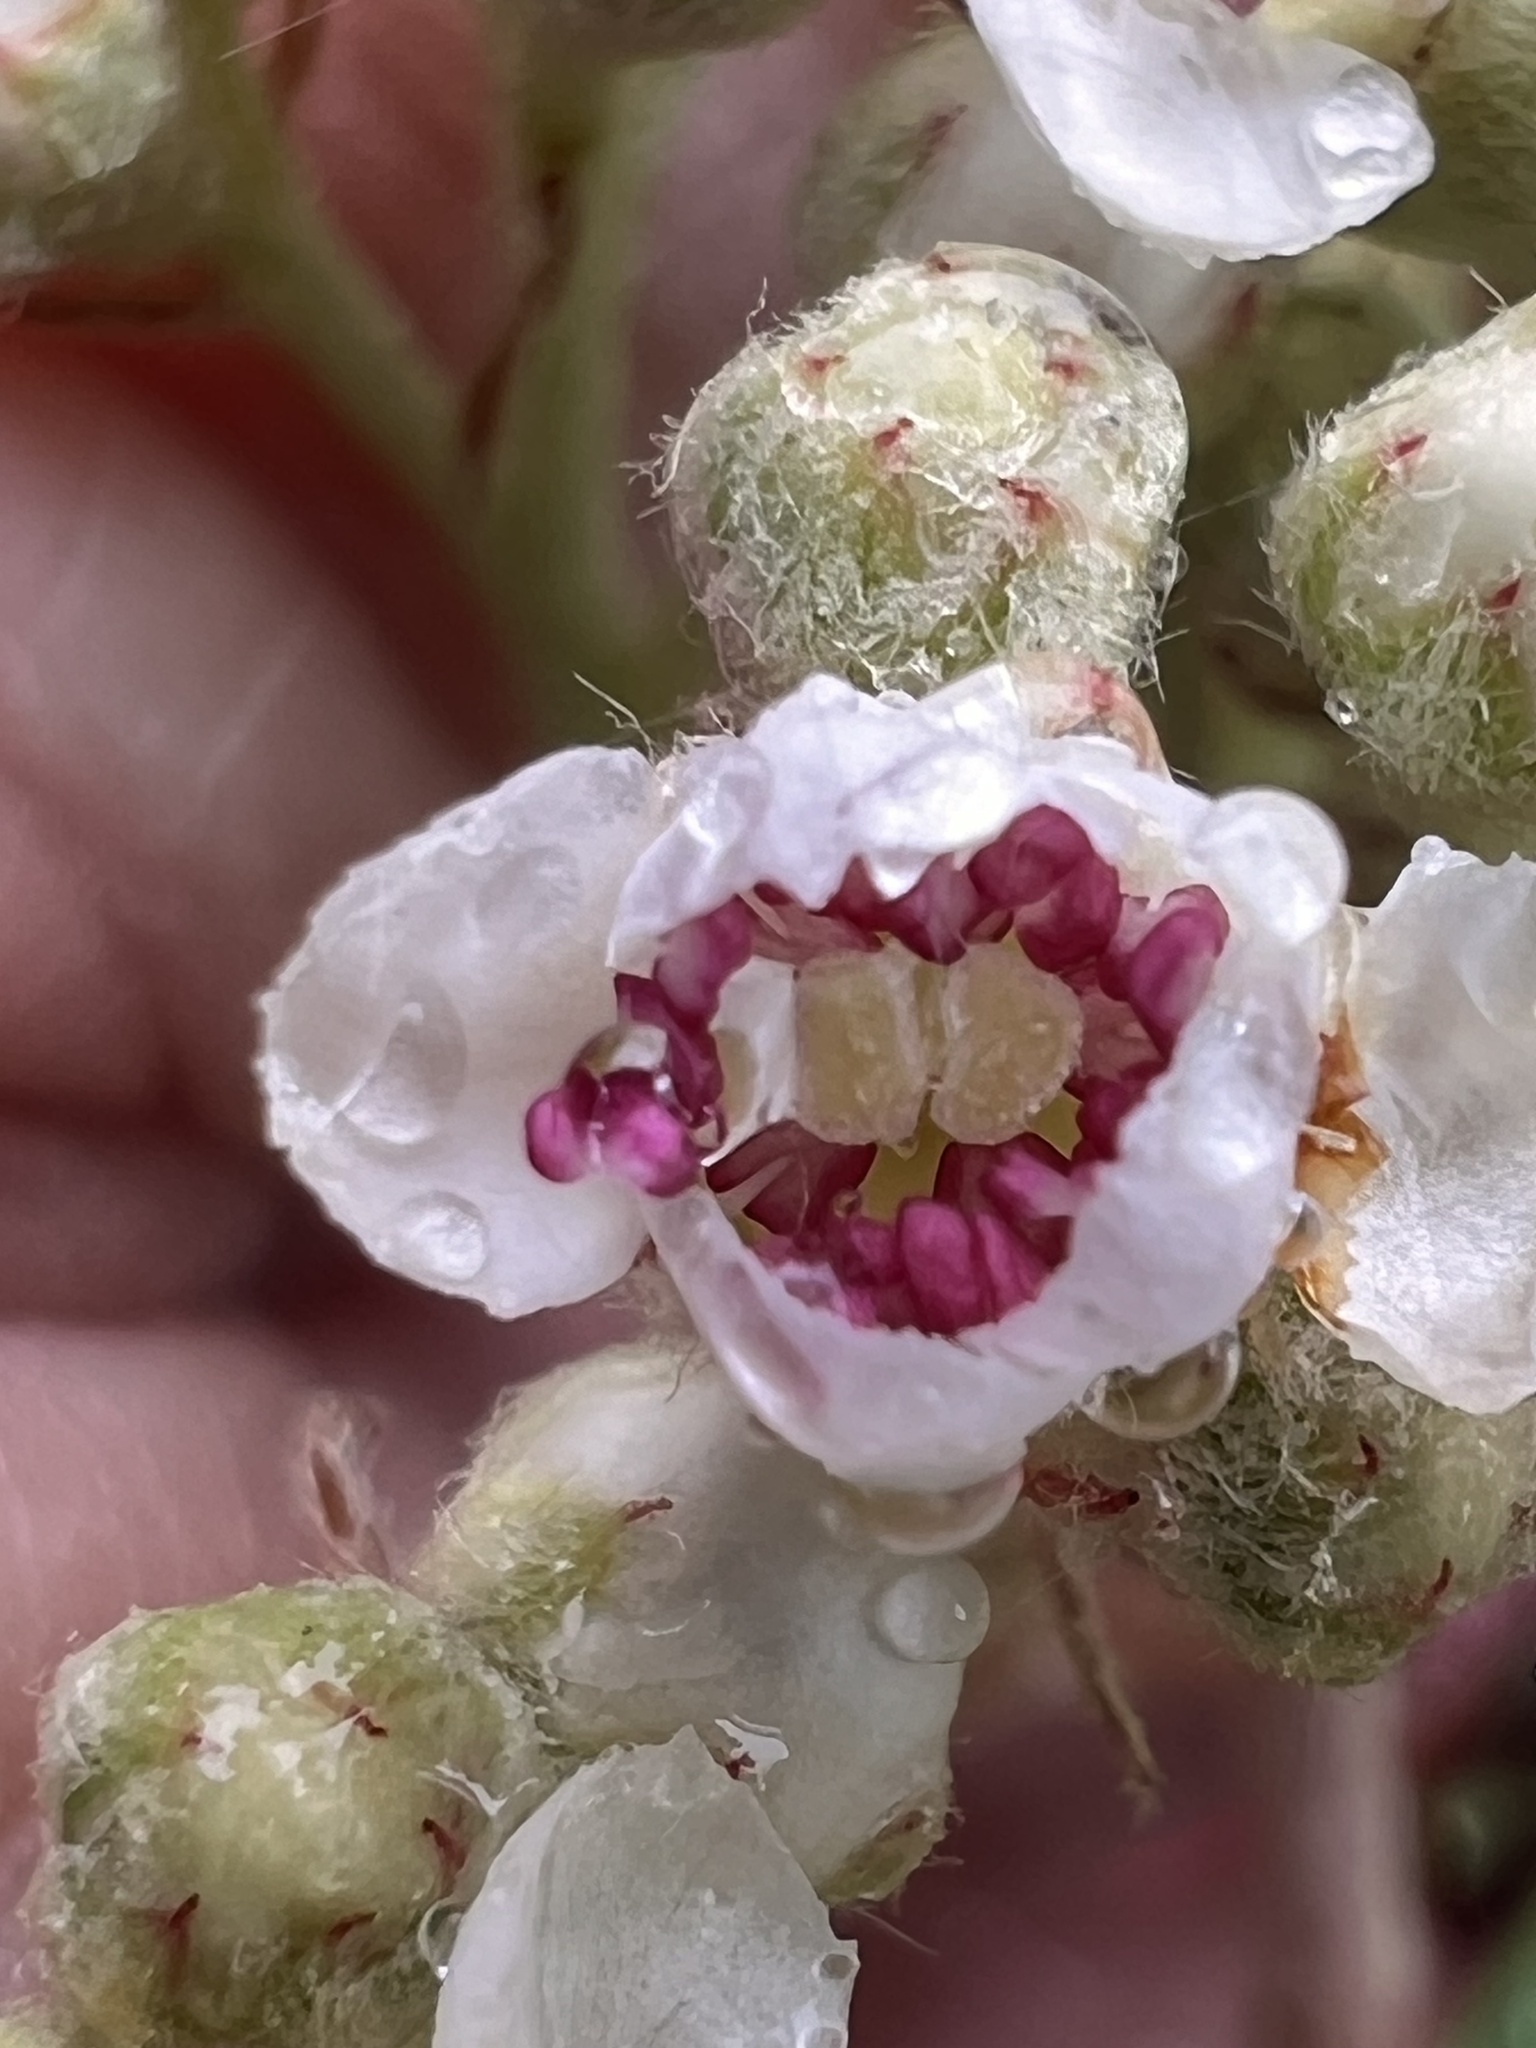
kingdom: Plantae
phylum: Tracheophyta
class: Magnoliopsida
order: Rosales
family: Rosaceae
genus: Cotoneaster
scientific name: Cotoneaster glaucophyllus
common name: Glaucous cotoneaster
